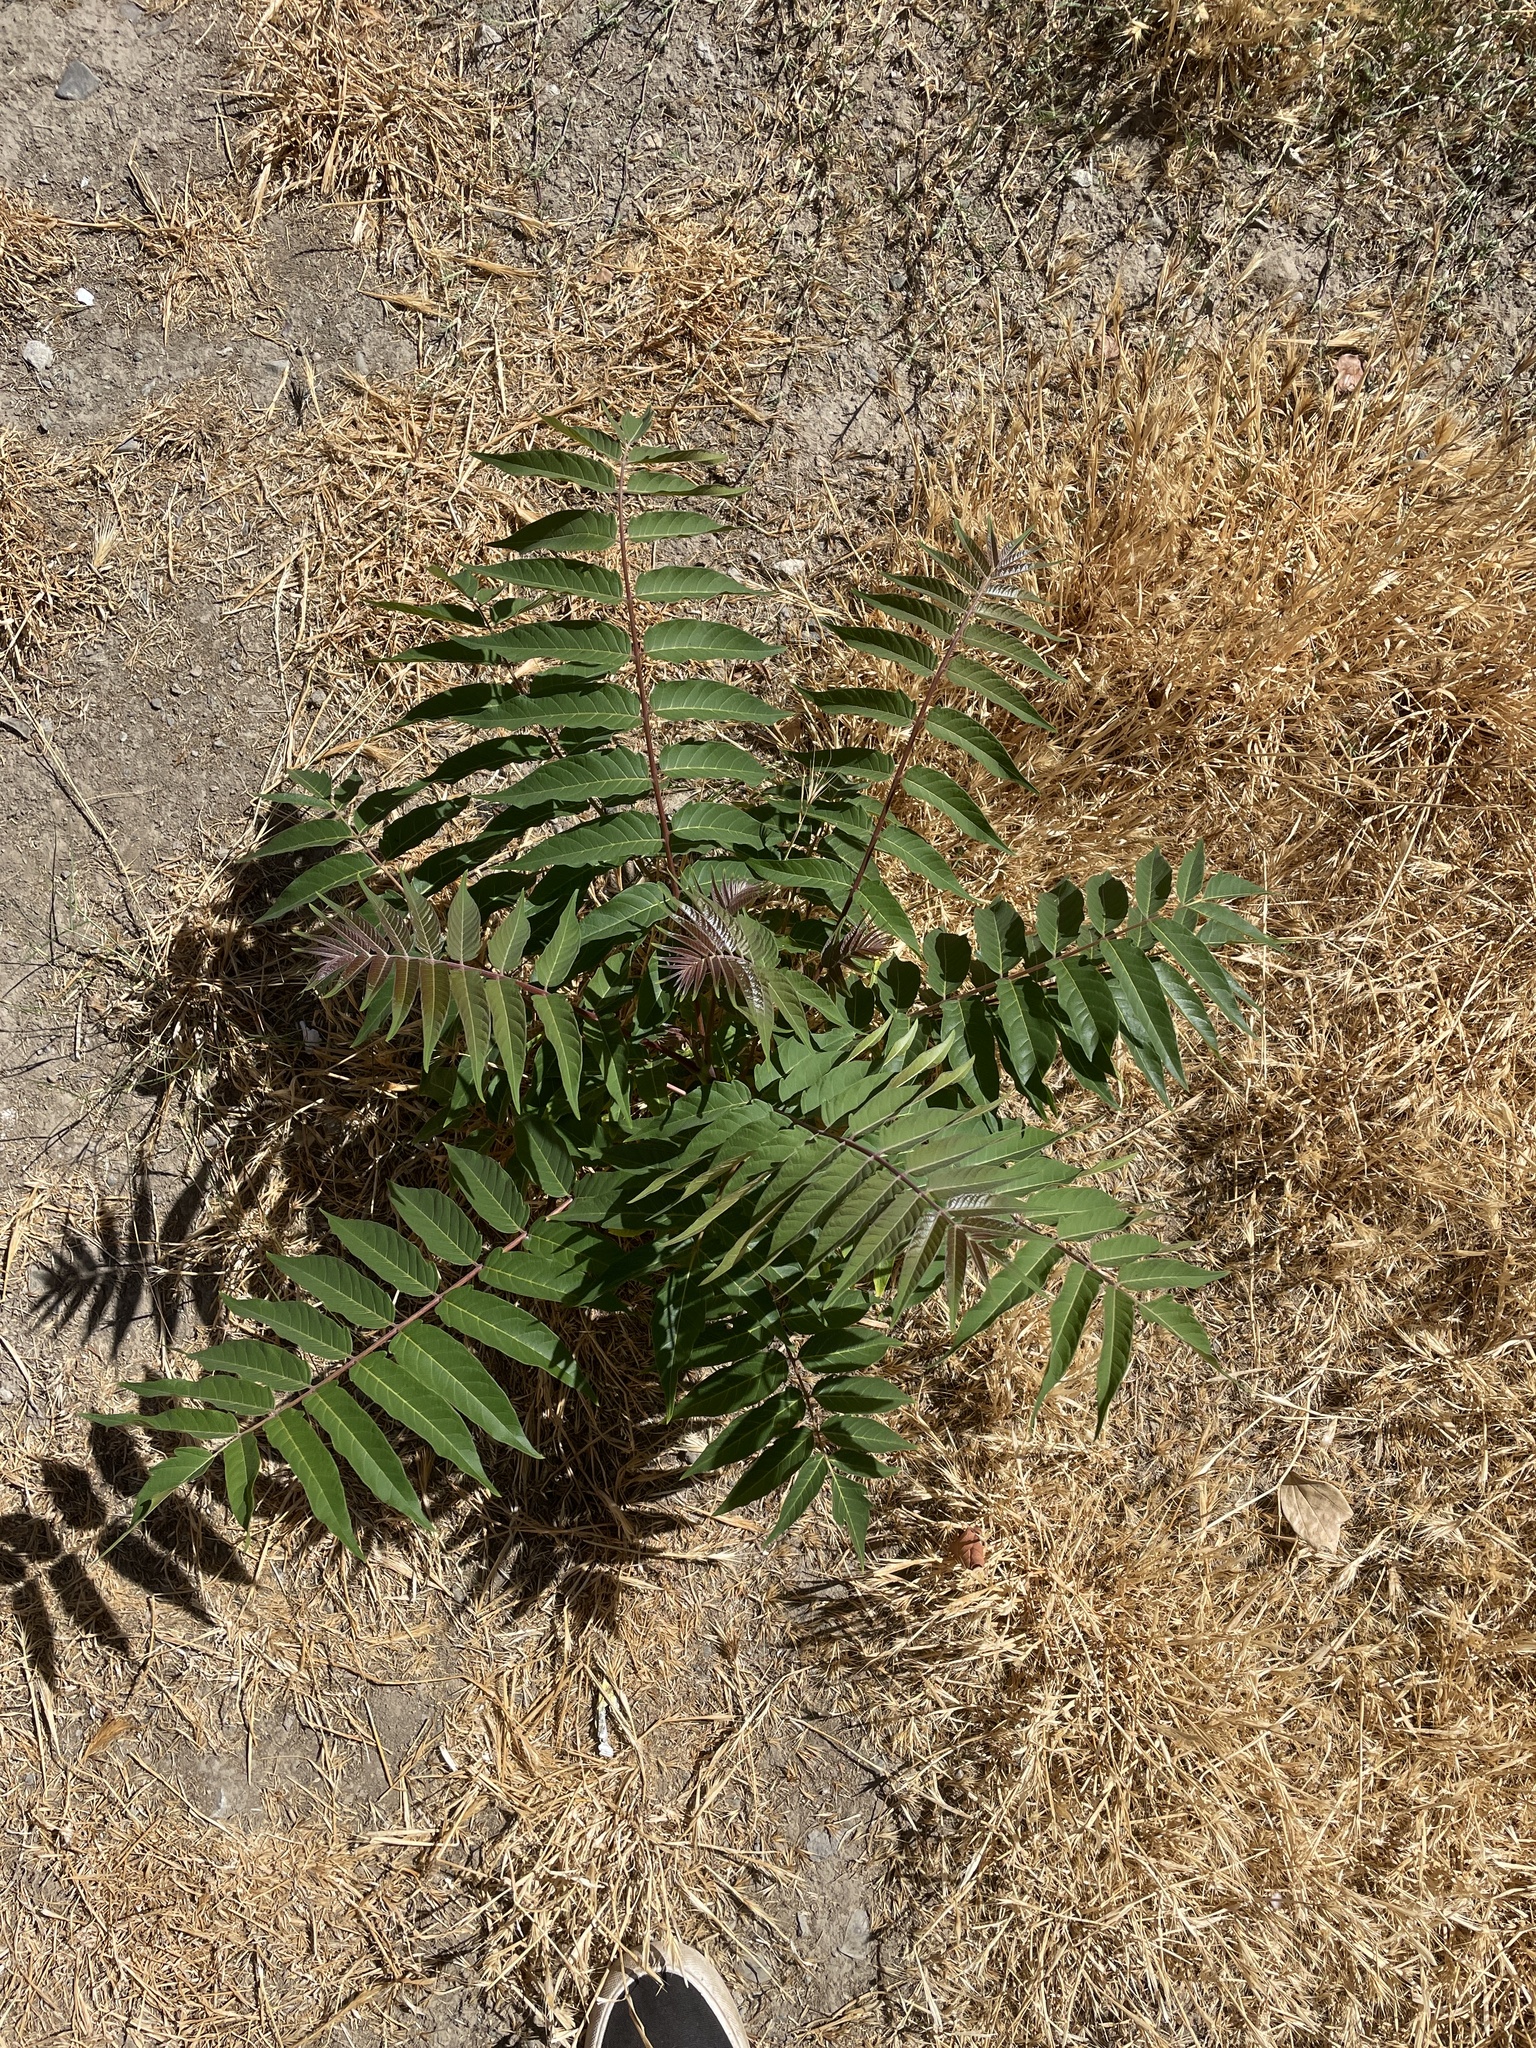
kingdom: Plantae
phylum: Tracheophyta
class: Magnoliopsida
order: Sapindales
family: Simaroubaceae
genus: Ailanthus
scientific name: Ailanthus altissima
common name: Tree-of-heaven
